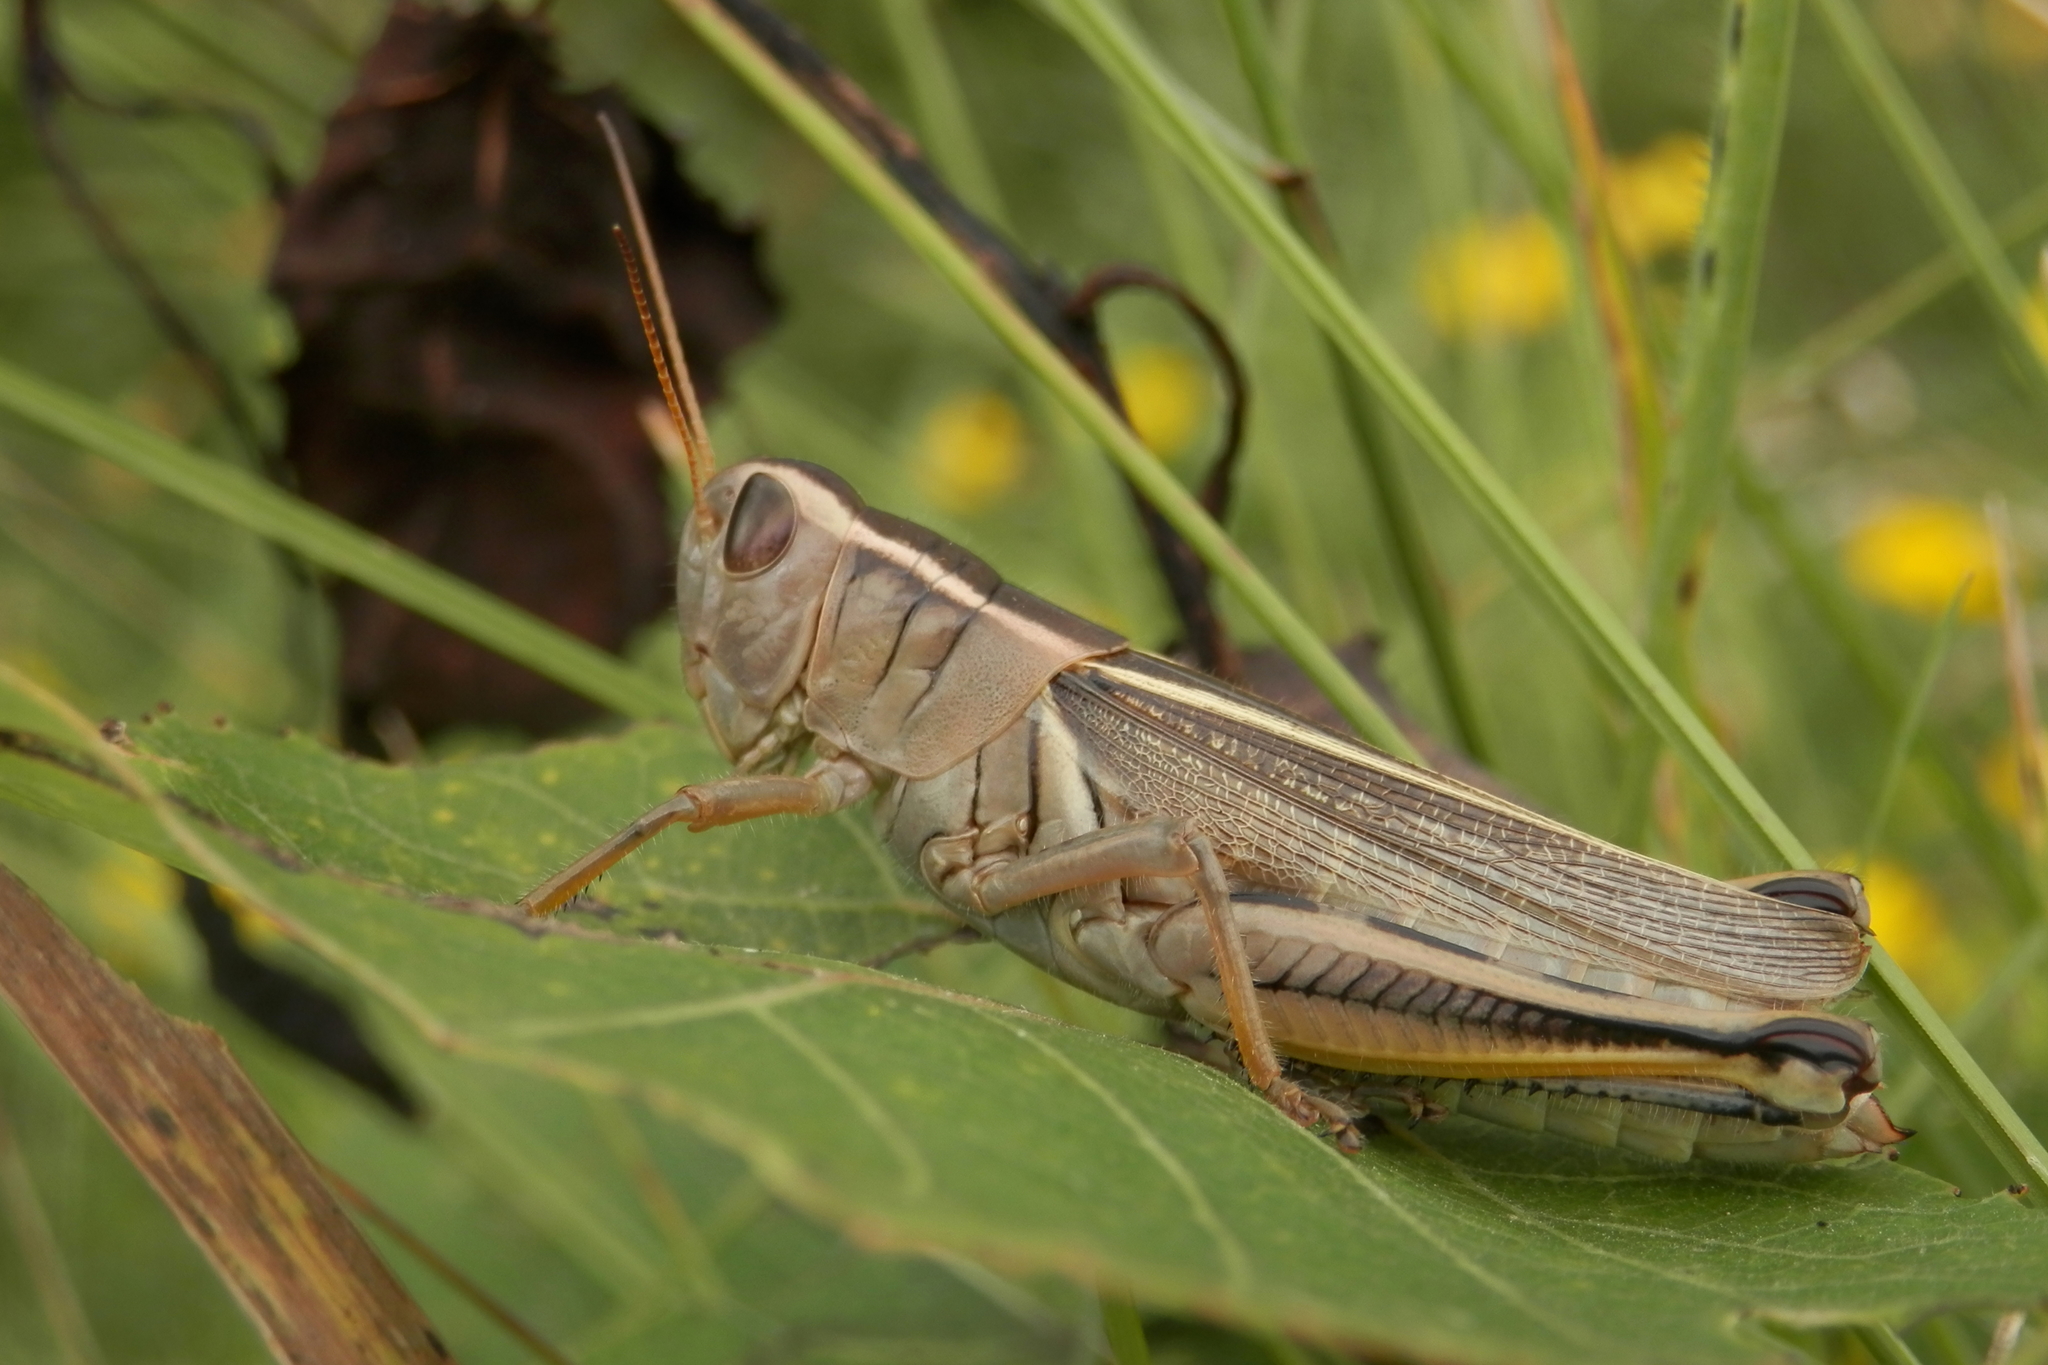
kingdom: Animalia
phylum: Arthropoda
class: Insecta
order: Orthoptera
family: Acrididae
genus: Melanoplus
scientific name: Melanoplus bivittatus
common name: Two-striped grasshopper
